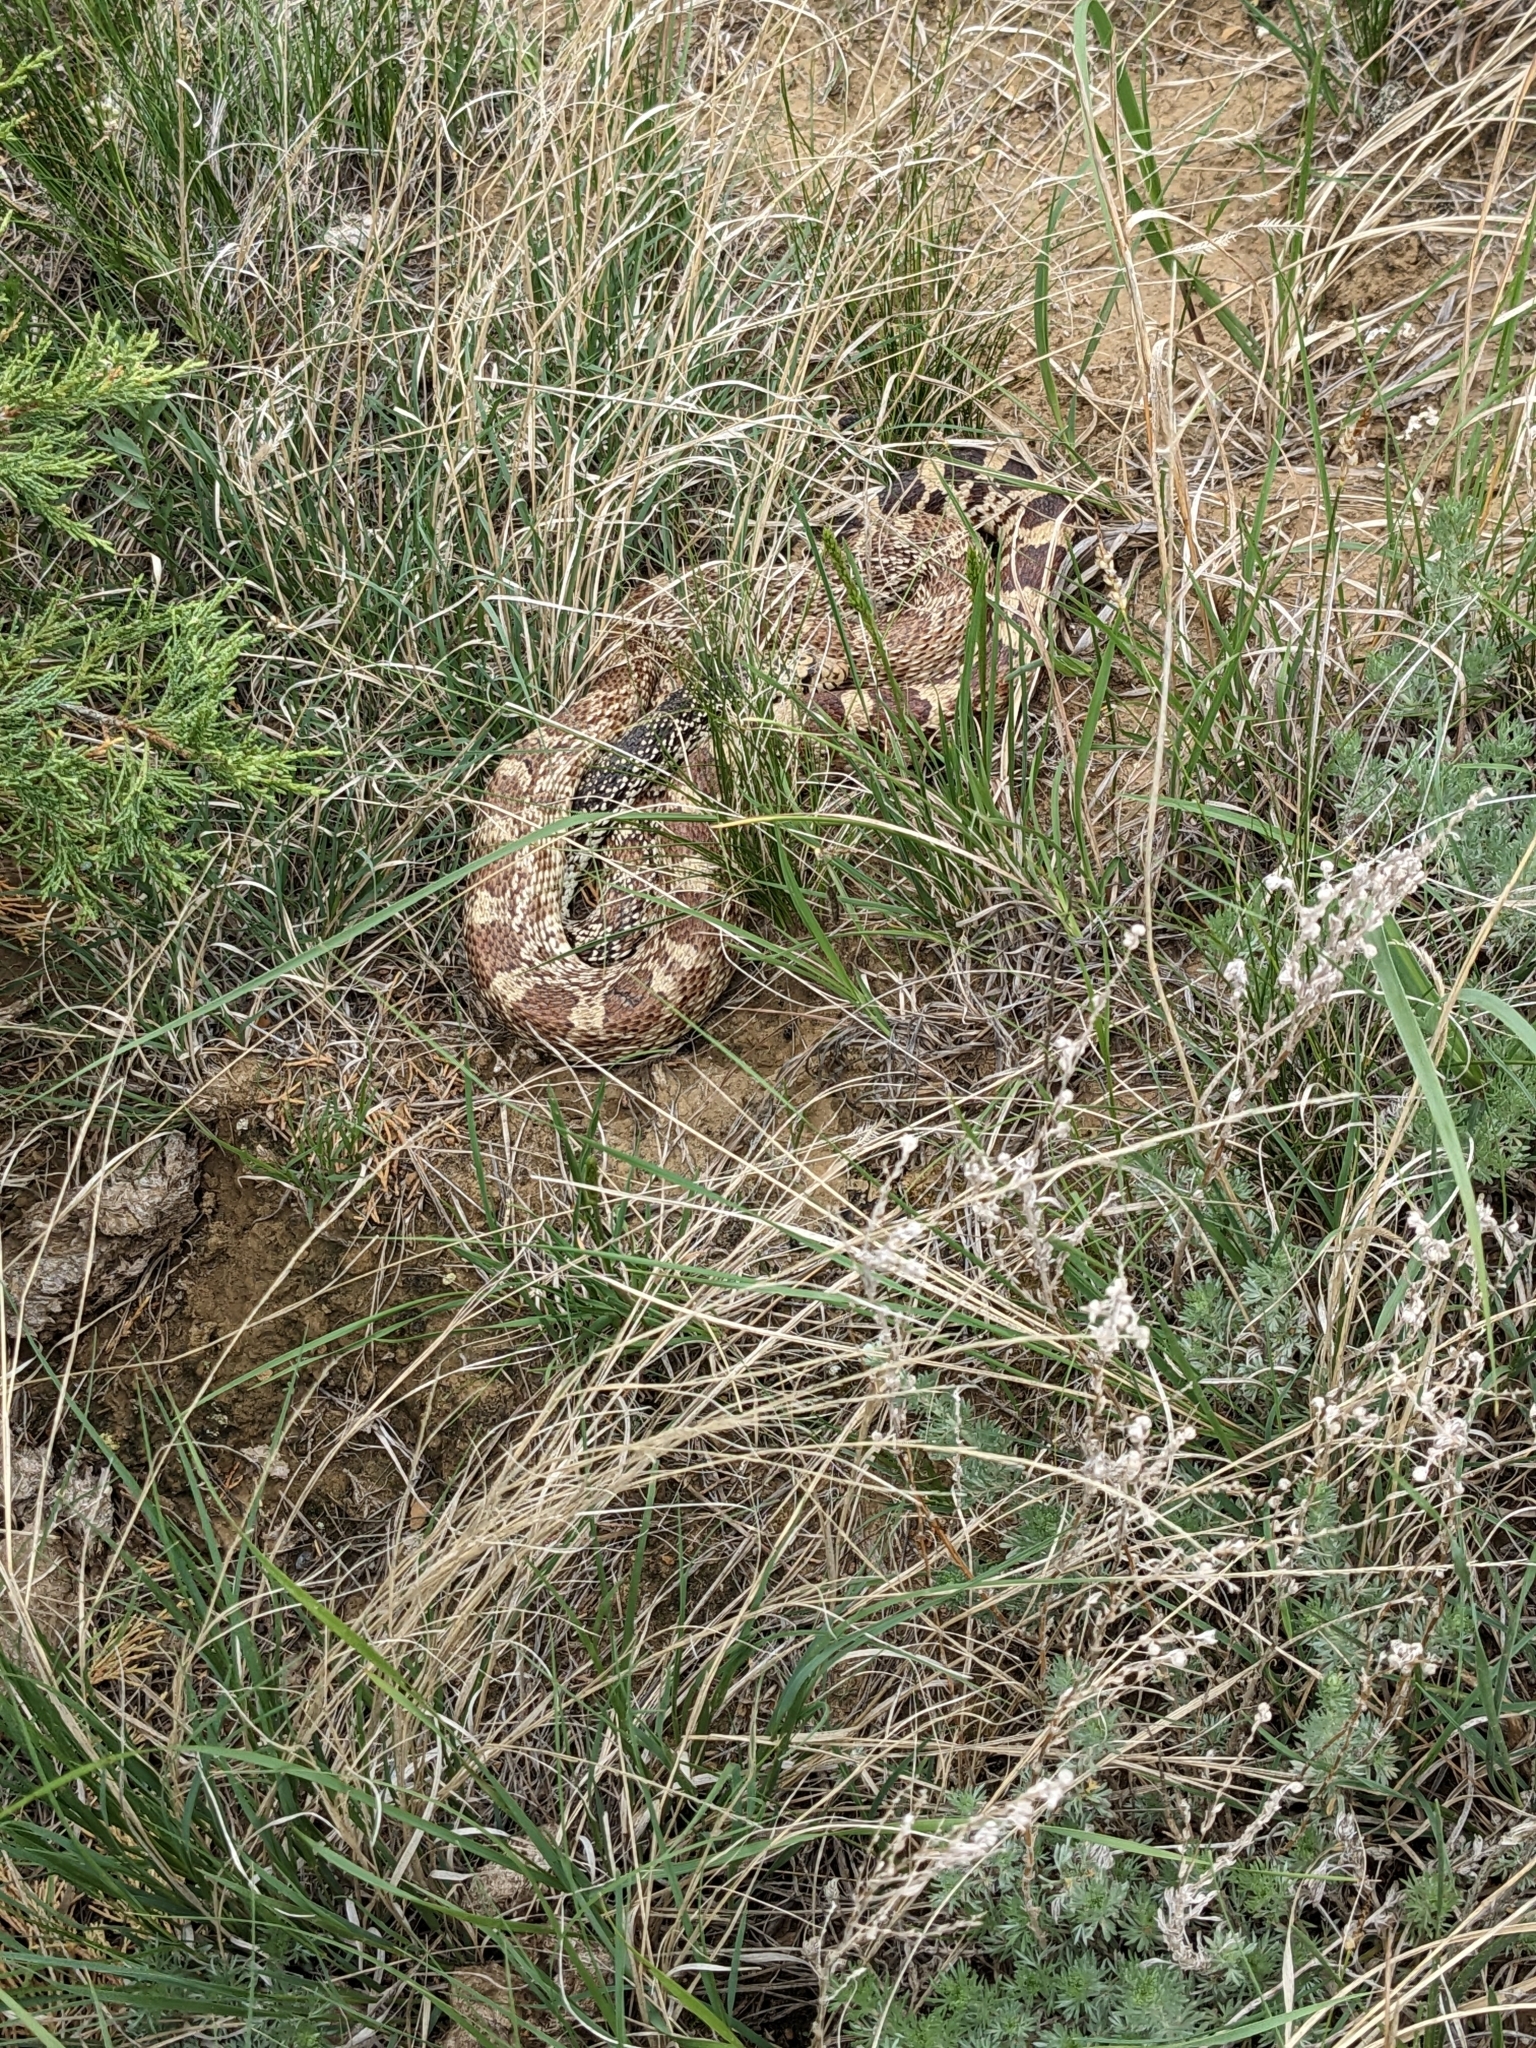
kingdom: Animalia
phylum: Chordata
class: Squamata
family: Colubridae
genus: Pituophis
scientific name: Pituophis catenifer
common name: Gopher snake
